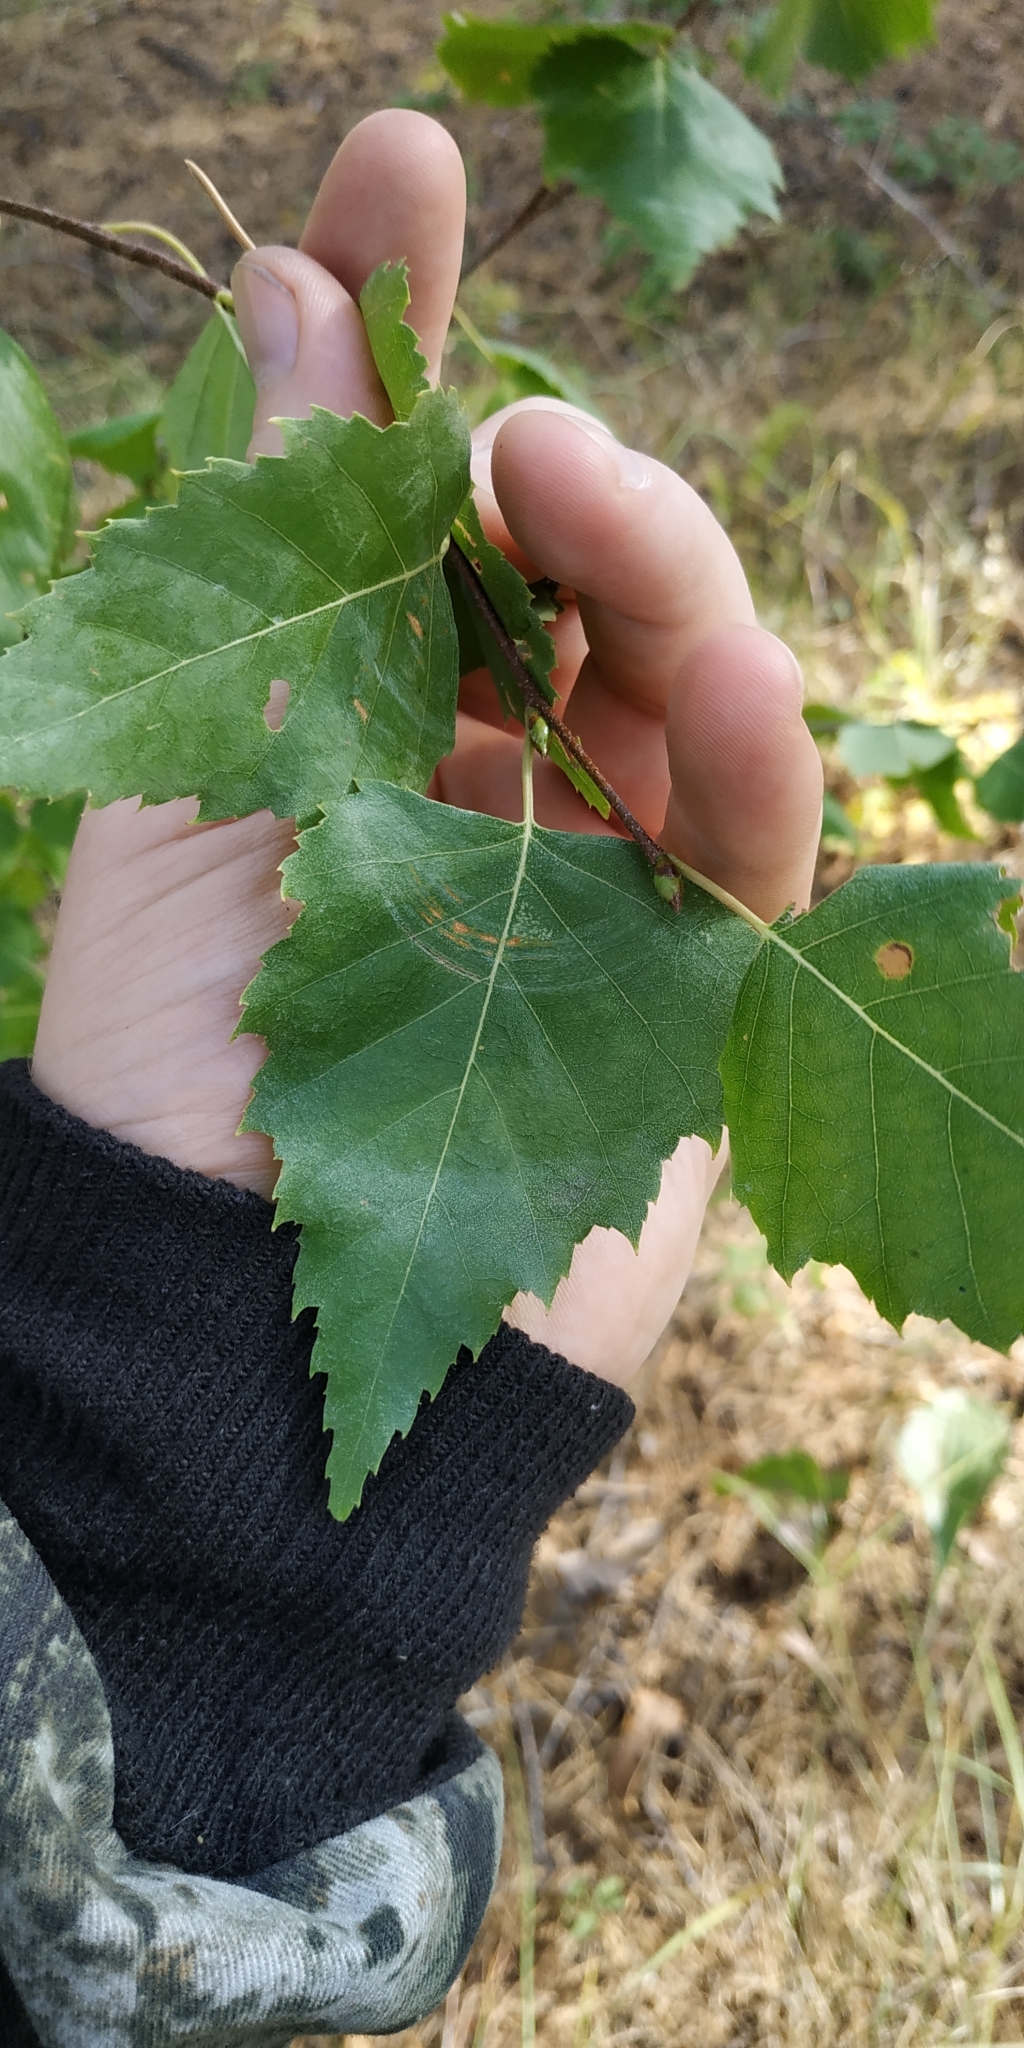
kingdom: Plantae
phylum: Tracheophyta
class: Magnoliopsida
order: Fagales
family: Betulaceae
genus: Betula
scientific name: Betula pendula
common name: Silver birch
